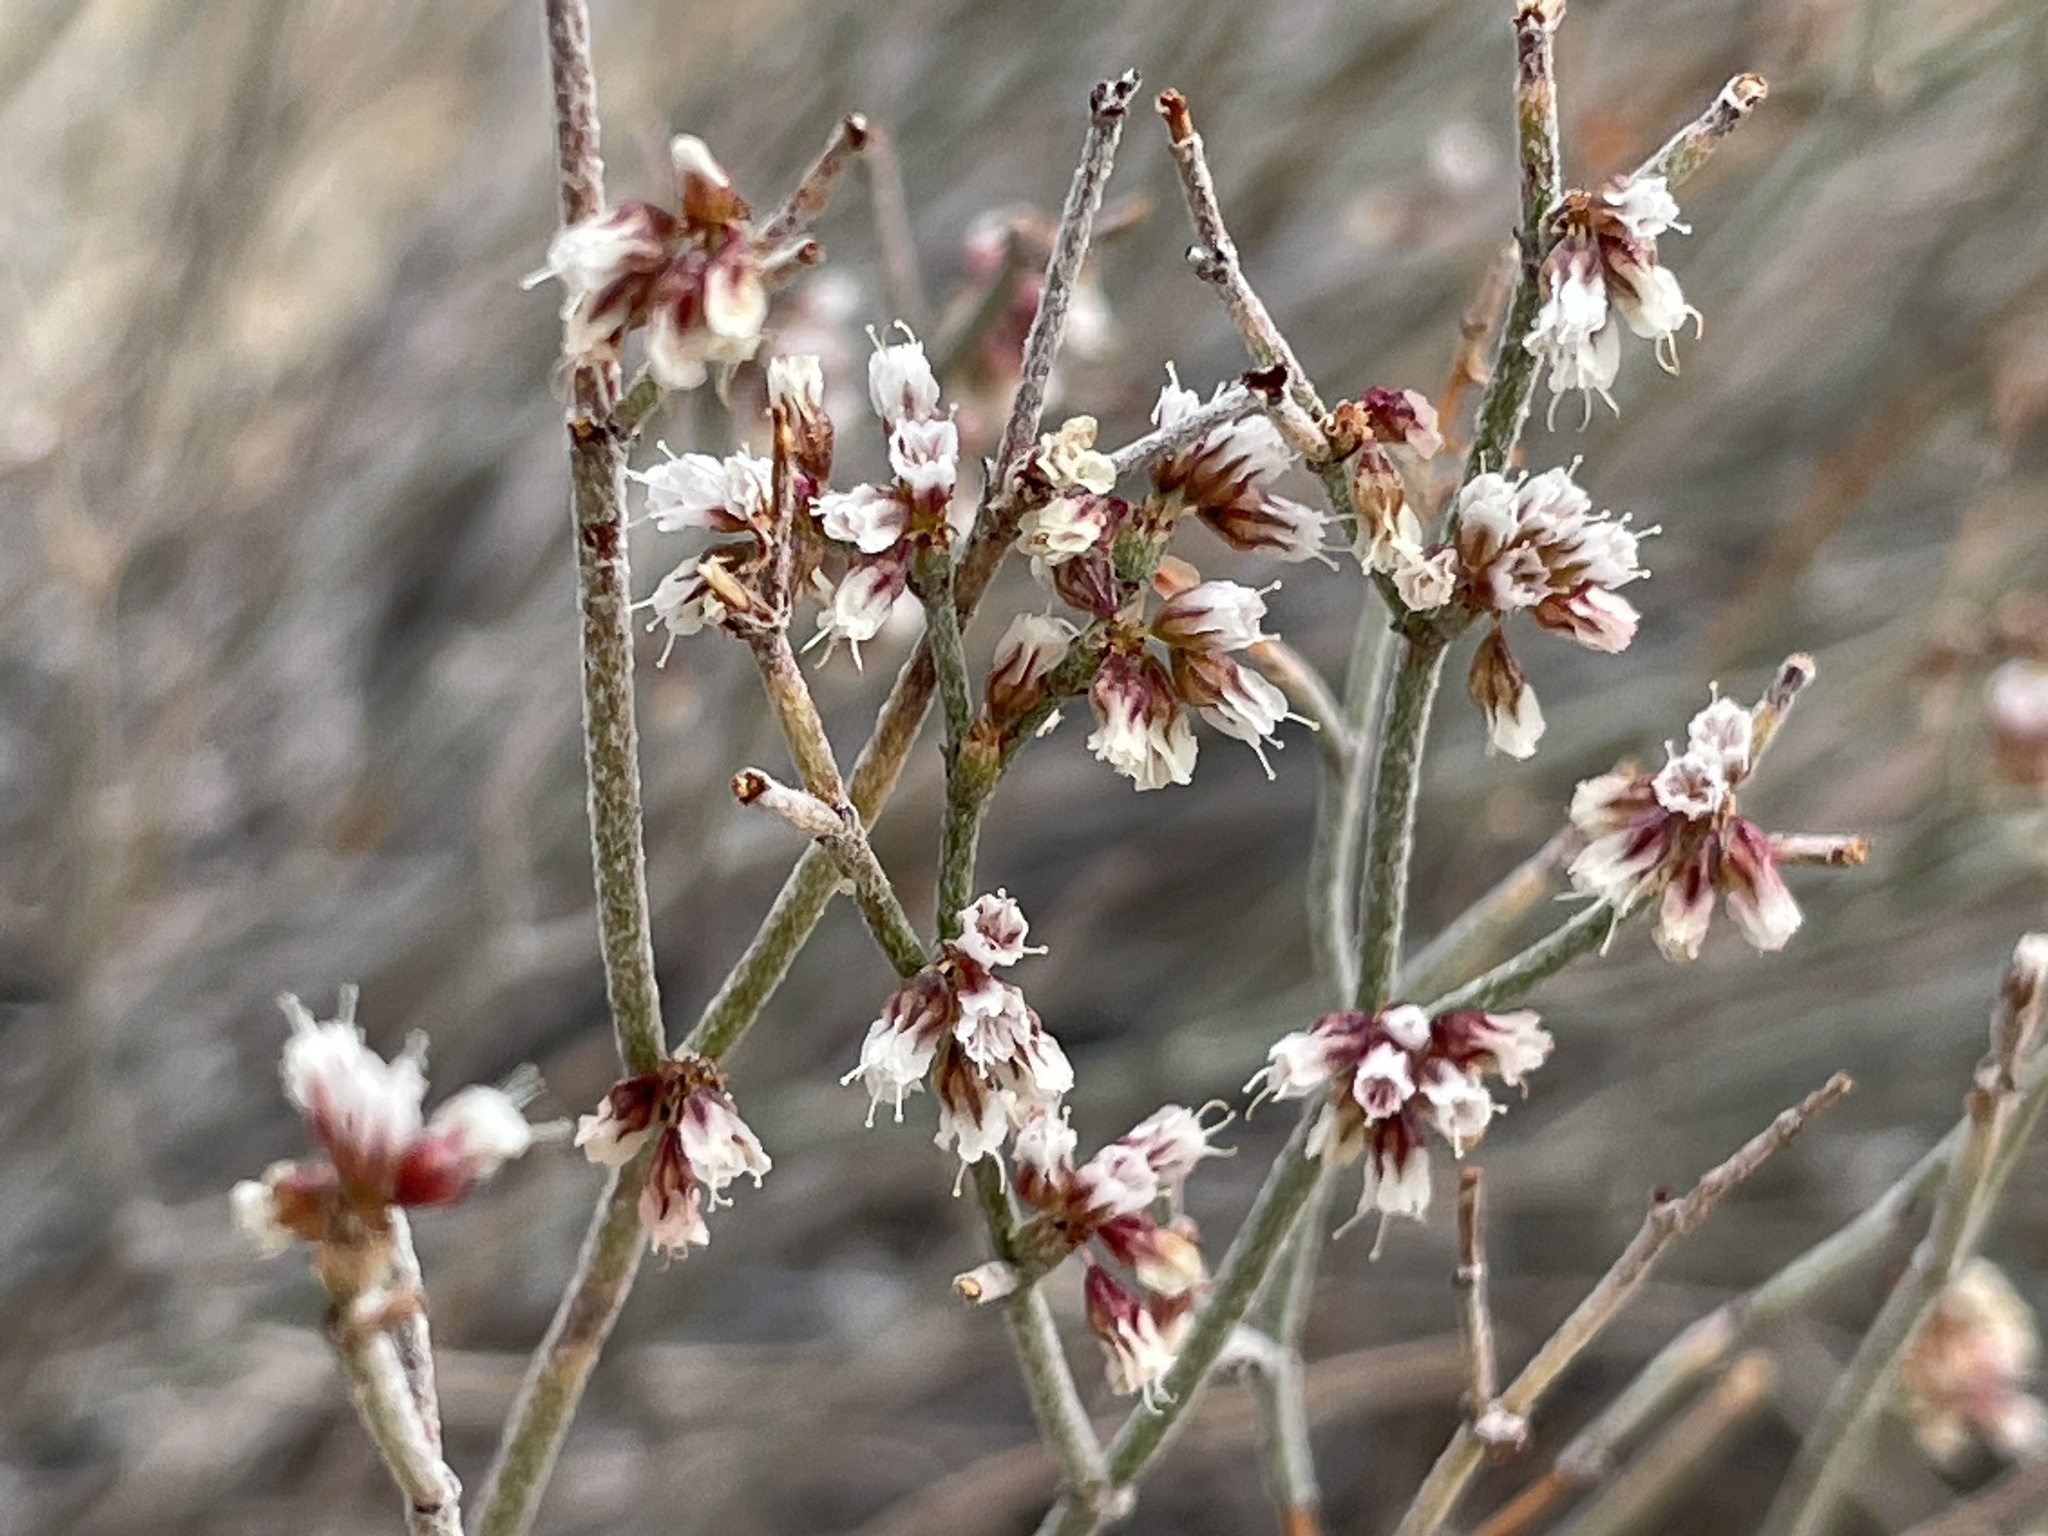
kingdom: Plantae
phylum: Tracheophyta
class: Magnoliopsida
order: Caryophyllales
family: Polygonaceae
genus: Eriogonum
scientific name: Eriogonum effusum
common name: Spreading wild buckwheat
